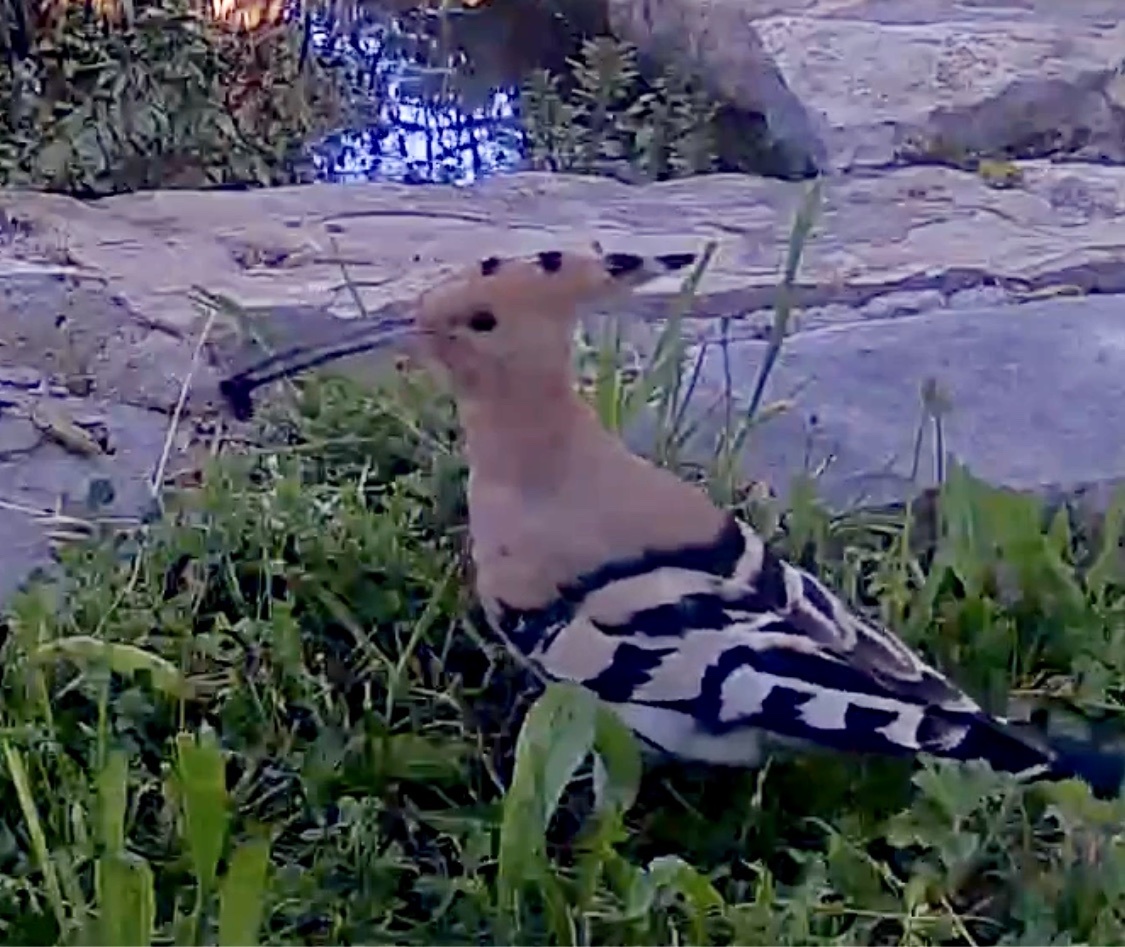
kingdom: Animalia
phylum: Chordata
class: Aves
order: Bucerotiformes
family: Upupidae
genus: Upupa
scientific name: Upupa epops
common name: Eurasian hoopoe
